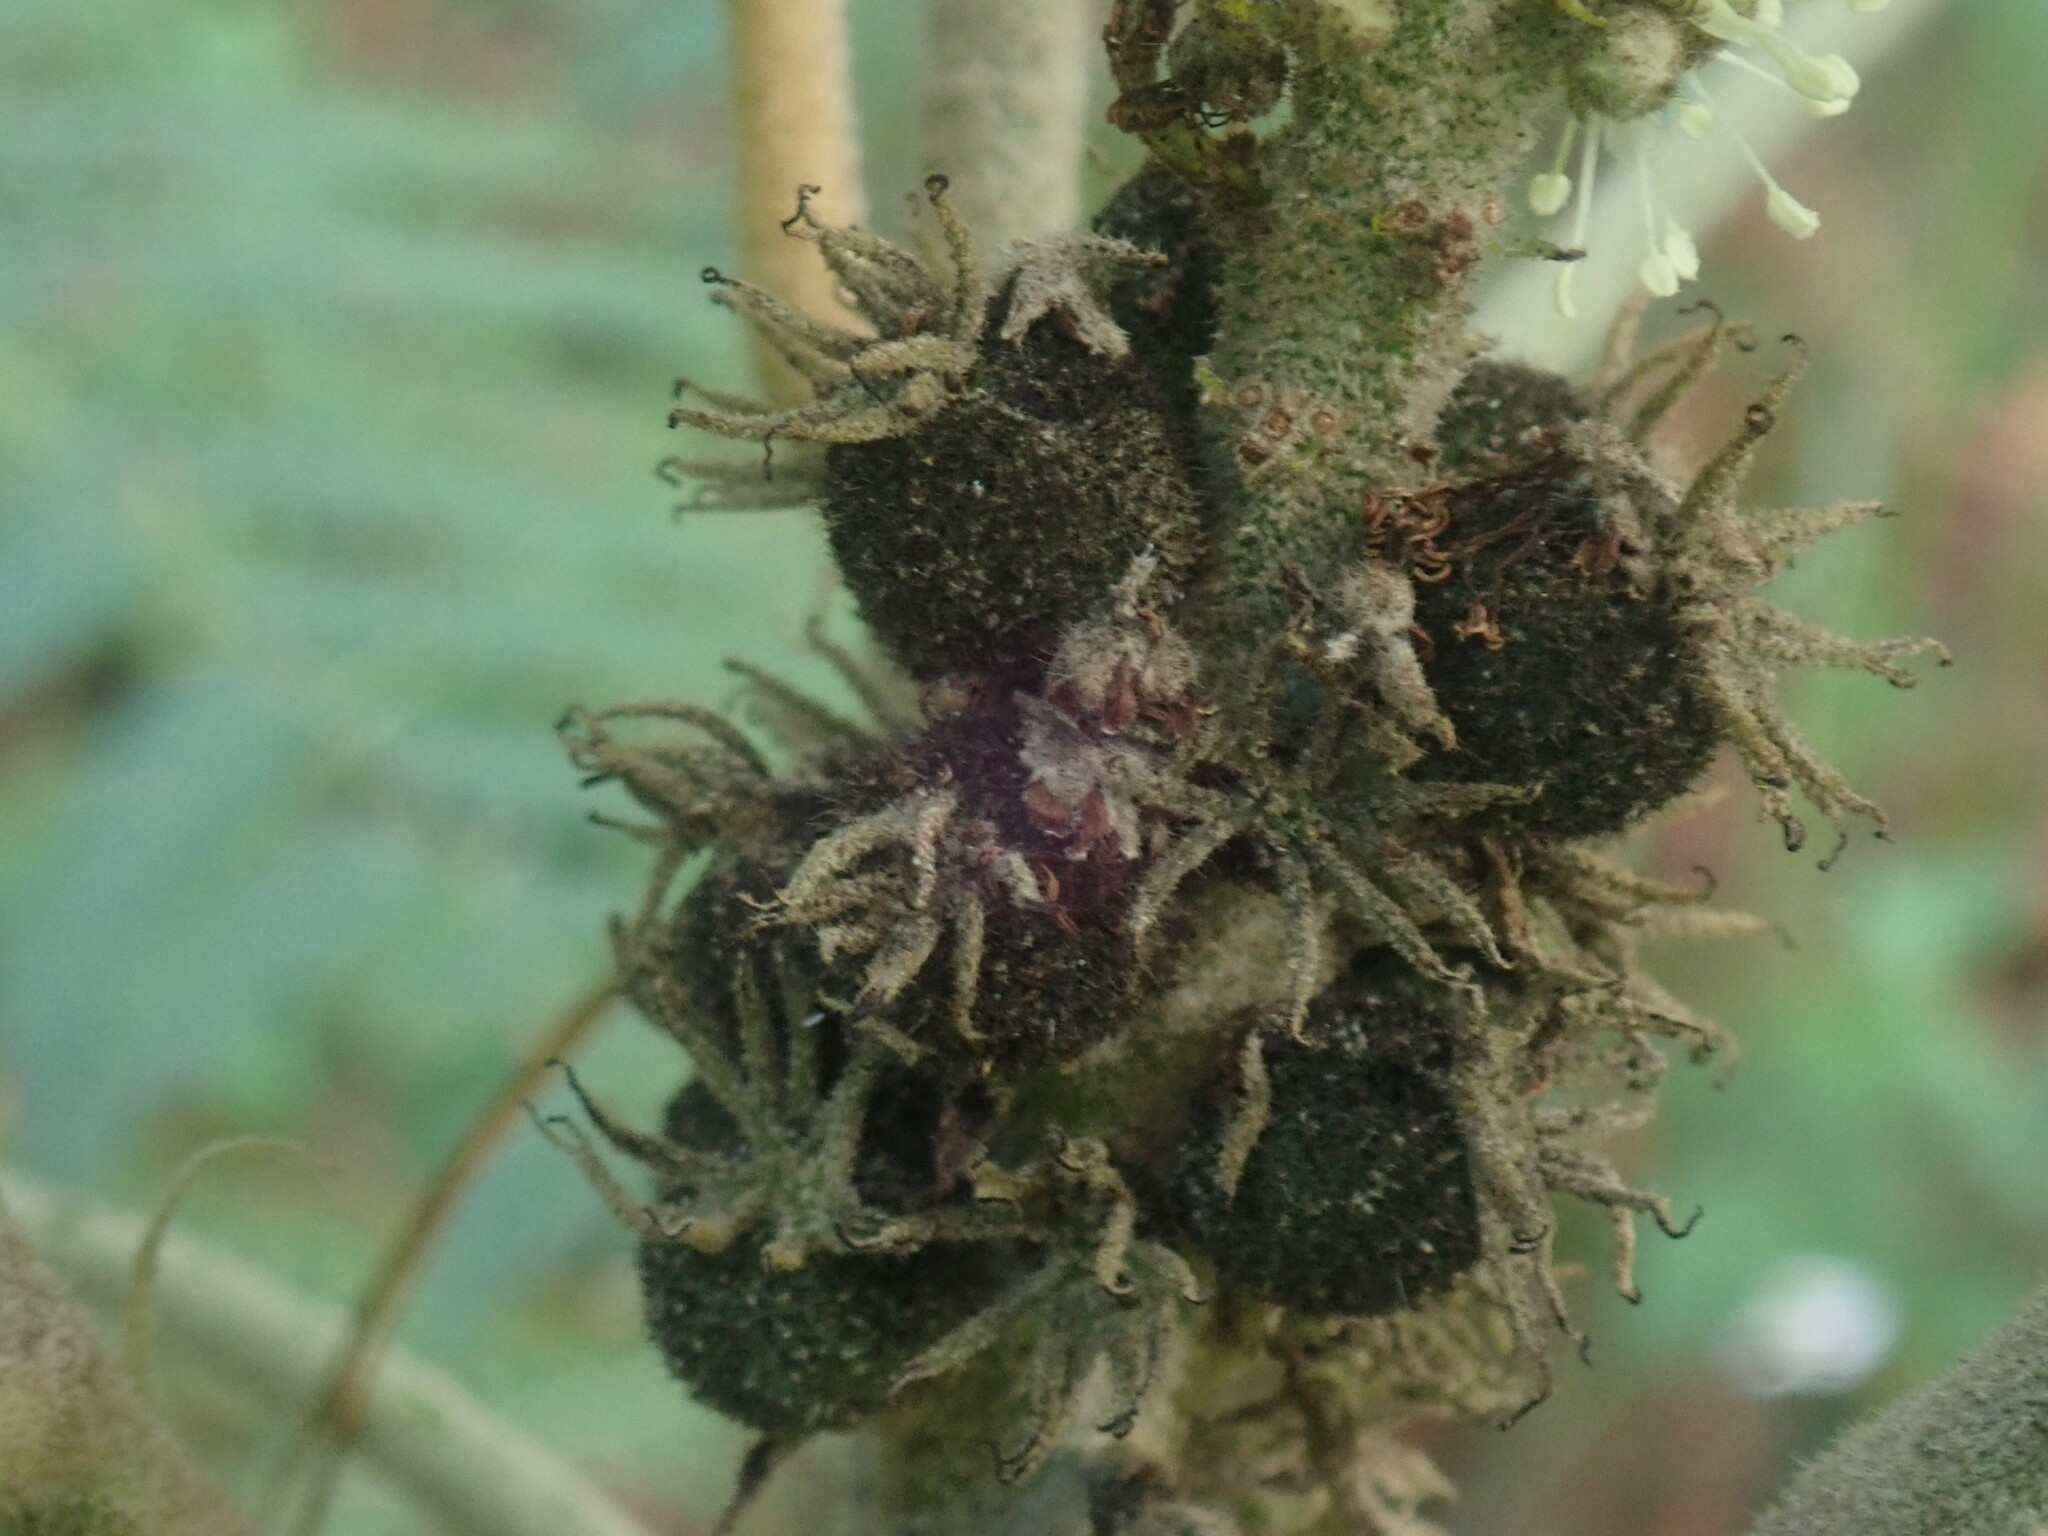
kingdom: Plantae
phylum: Tracheophyta
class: Magnoliopsida
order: Malpighiales
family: Euphorbiaceae
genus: Croton
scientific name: Croton stipulaceus
